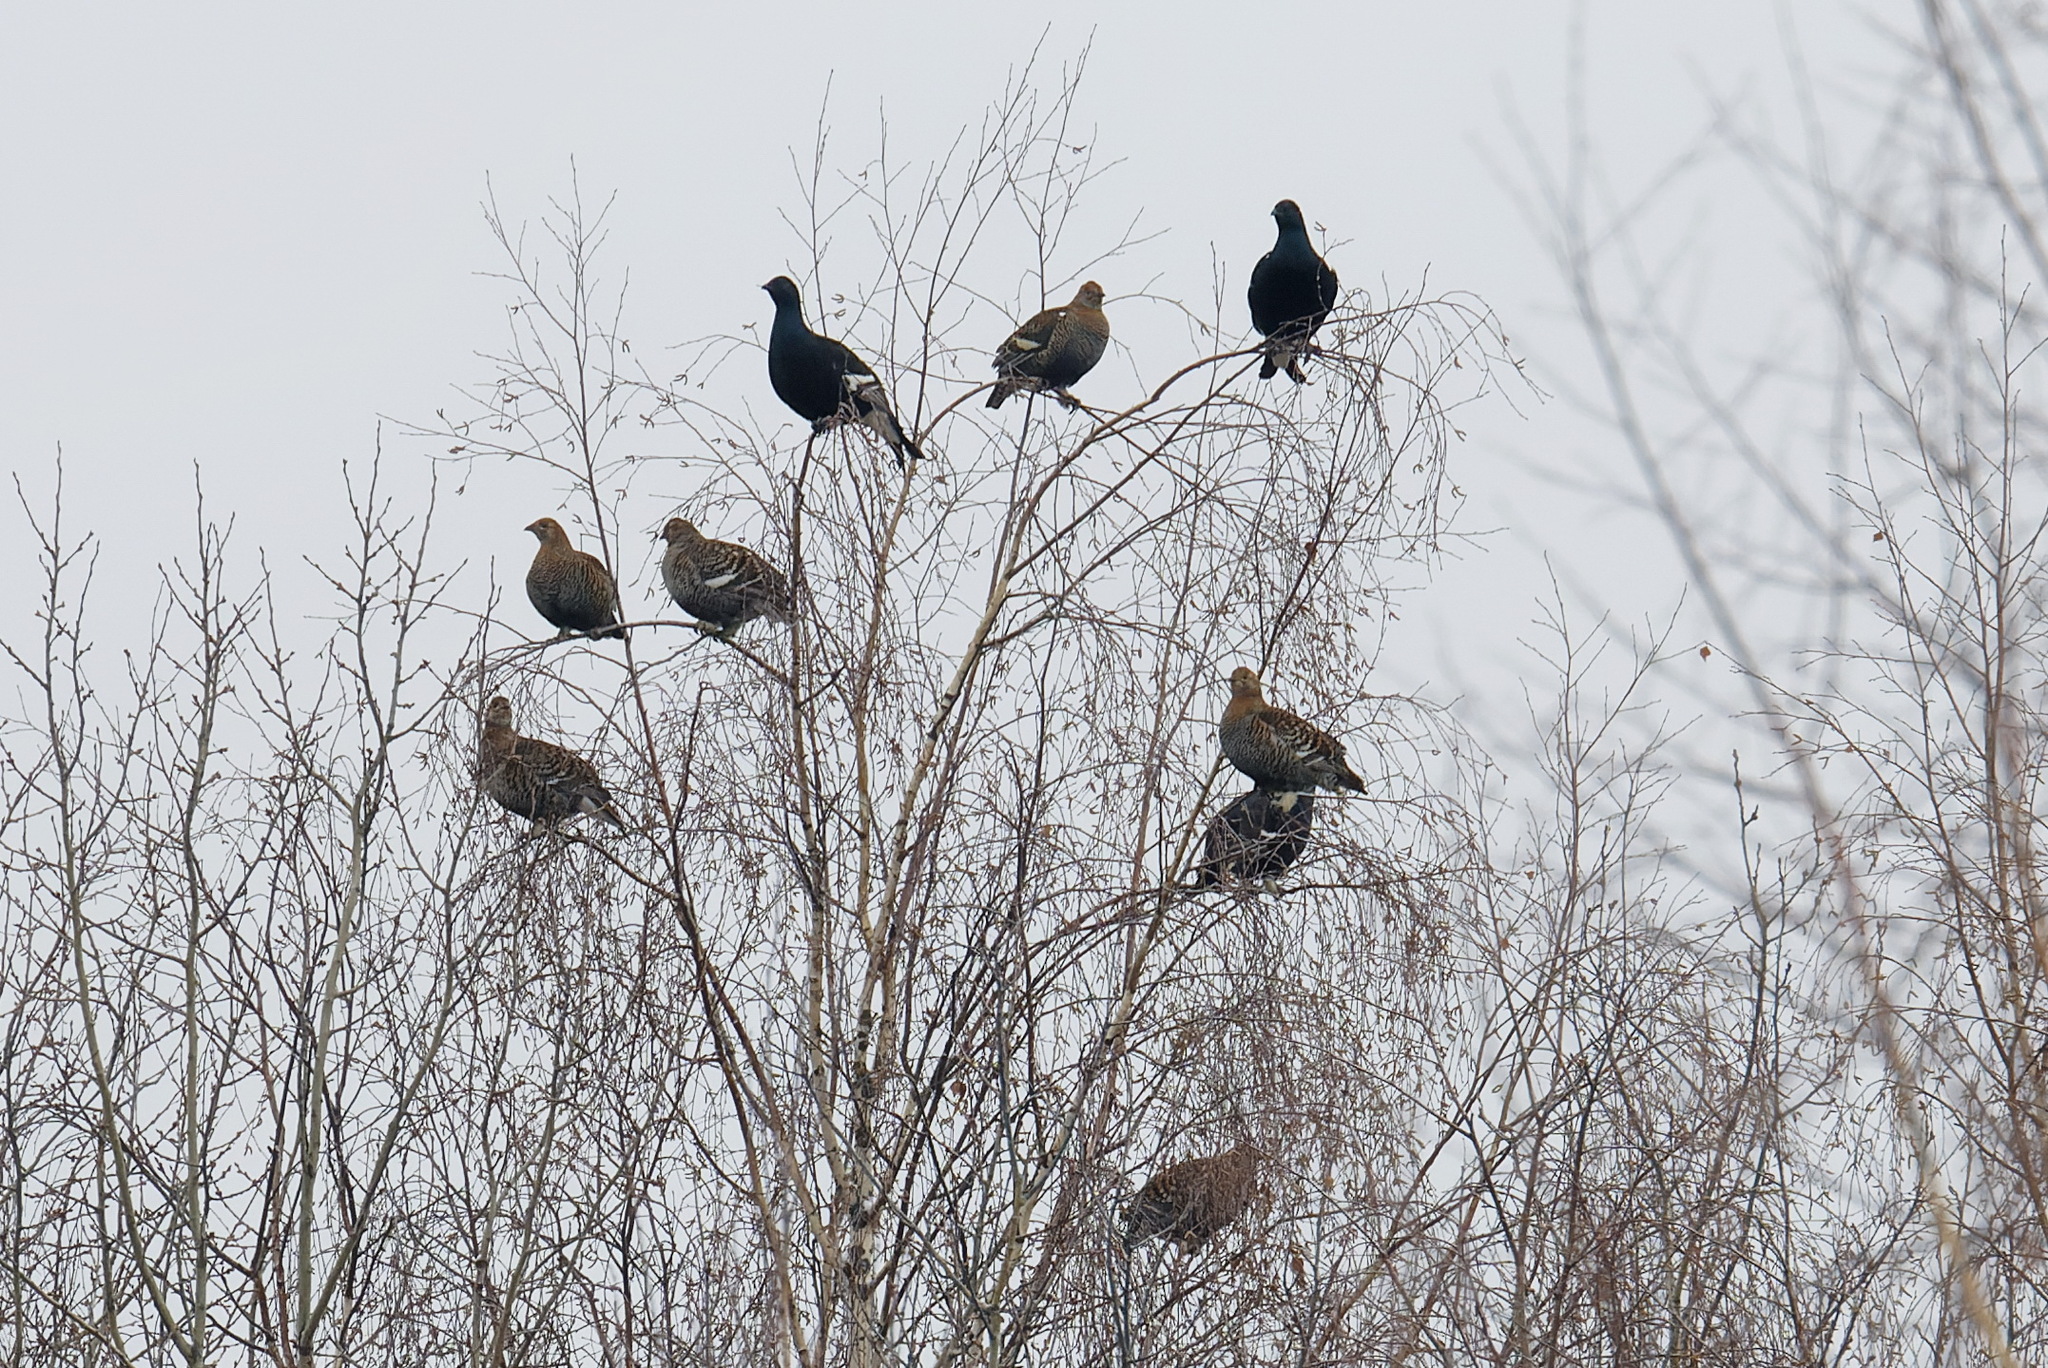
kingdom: Animalia
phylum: Chordata
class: Aves
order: Galliformes
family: Phasianidae
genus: Lyrurus
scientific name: Lyrurus tetrix
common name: Black grouse
